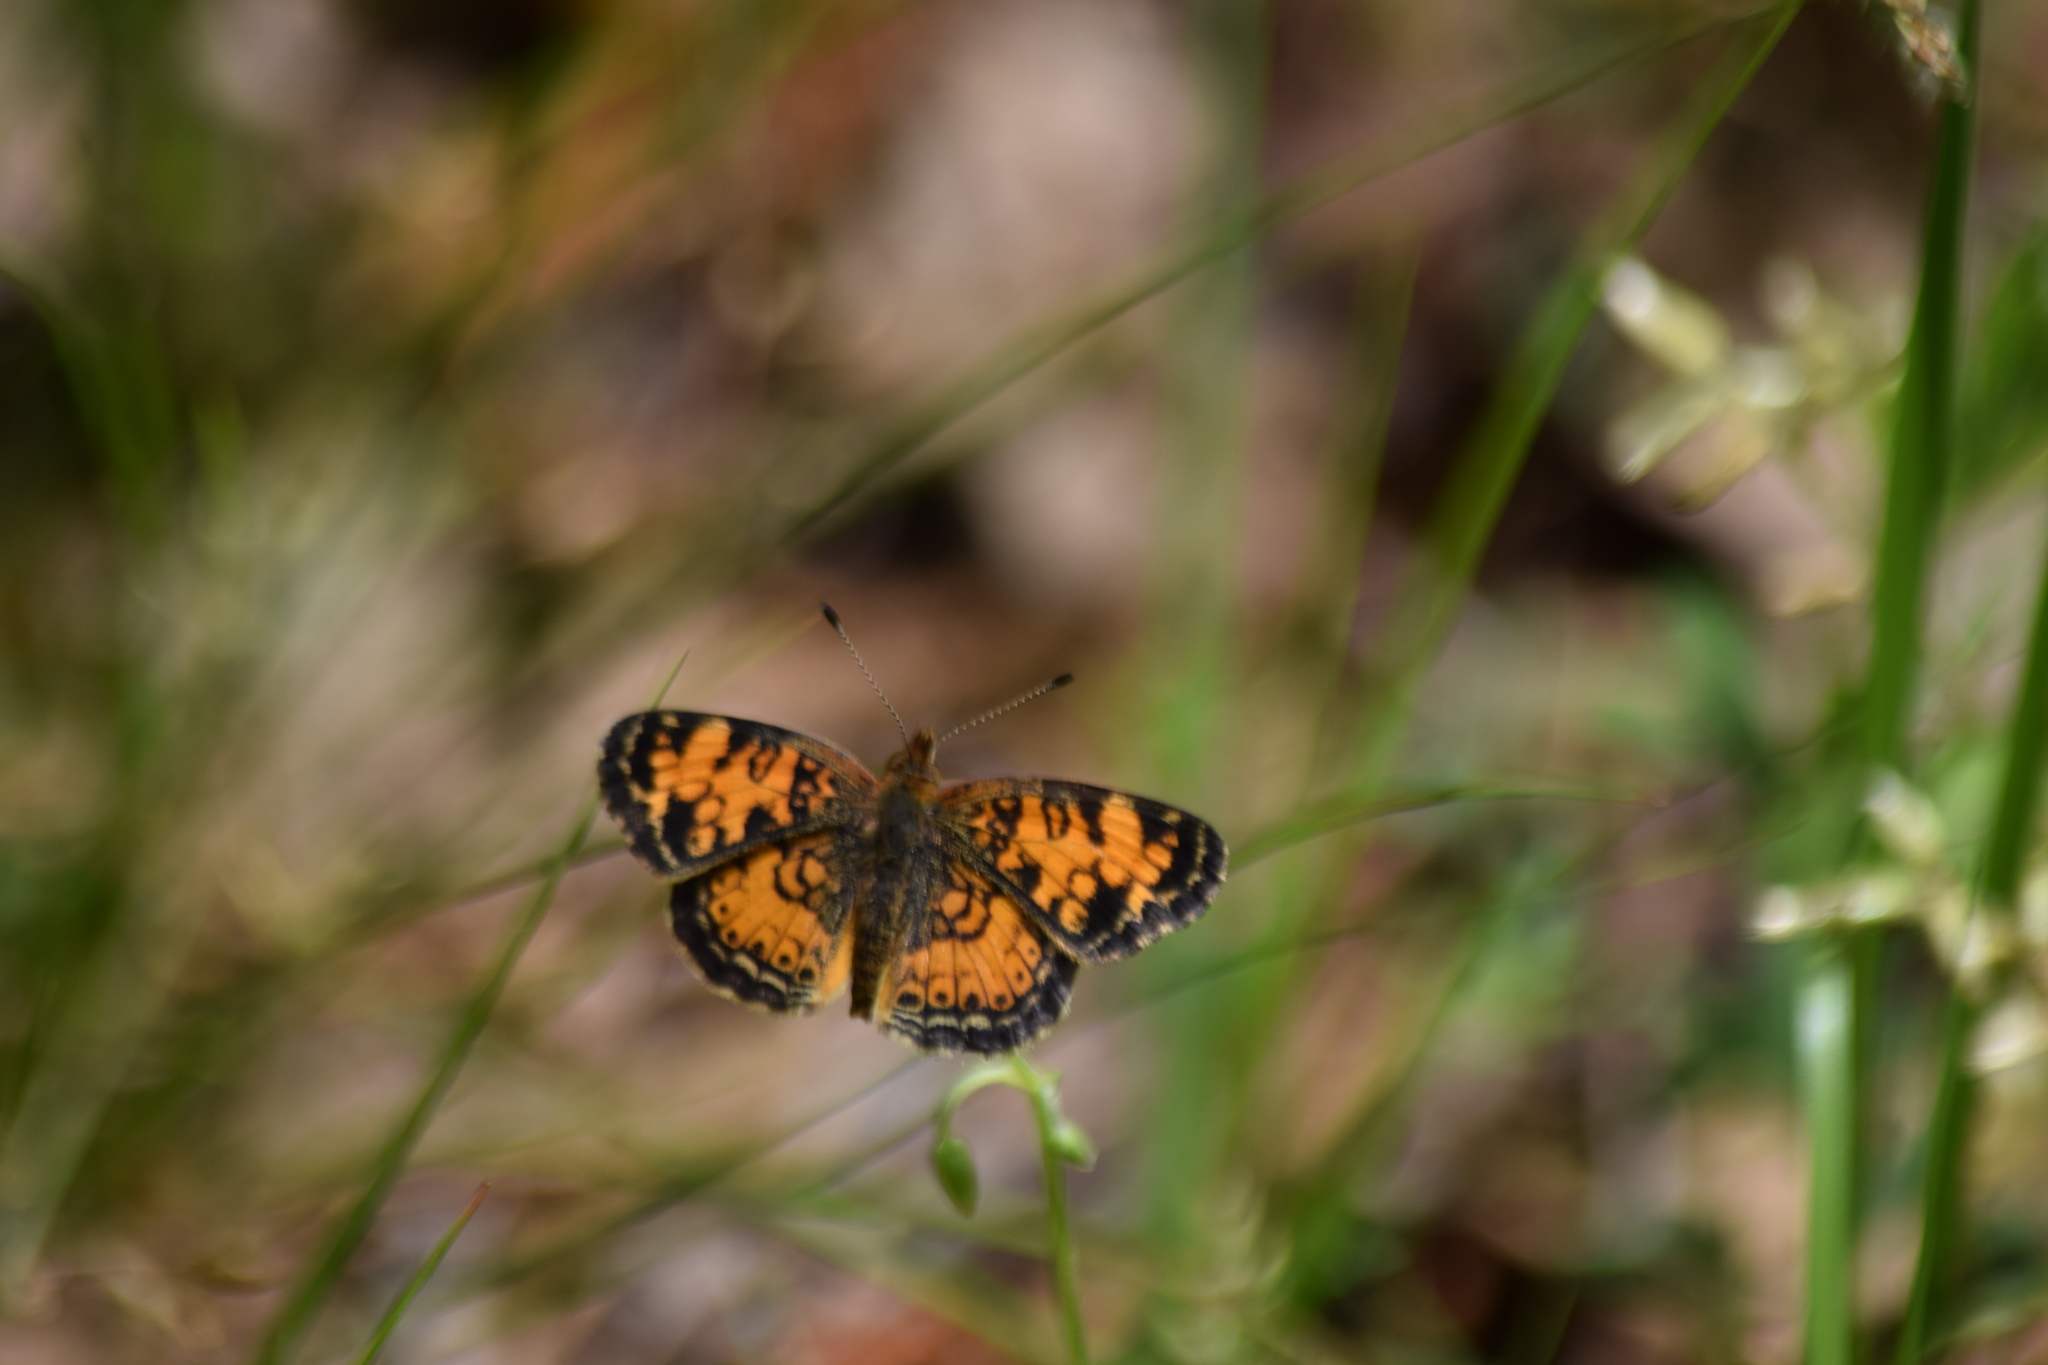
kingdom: Animalia
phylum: Arthropoda
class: Insecta
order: Lepidoptera
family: Nymphalidae
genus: Phyciodes
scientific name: Phyciodes tharos
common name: Pearl crescent
